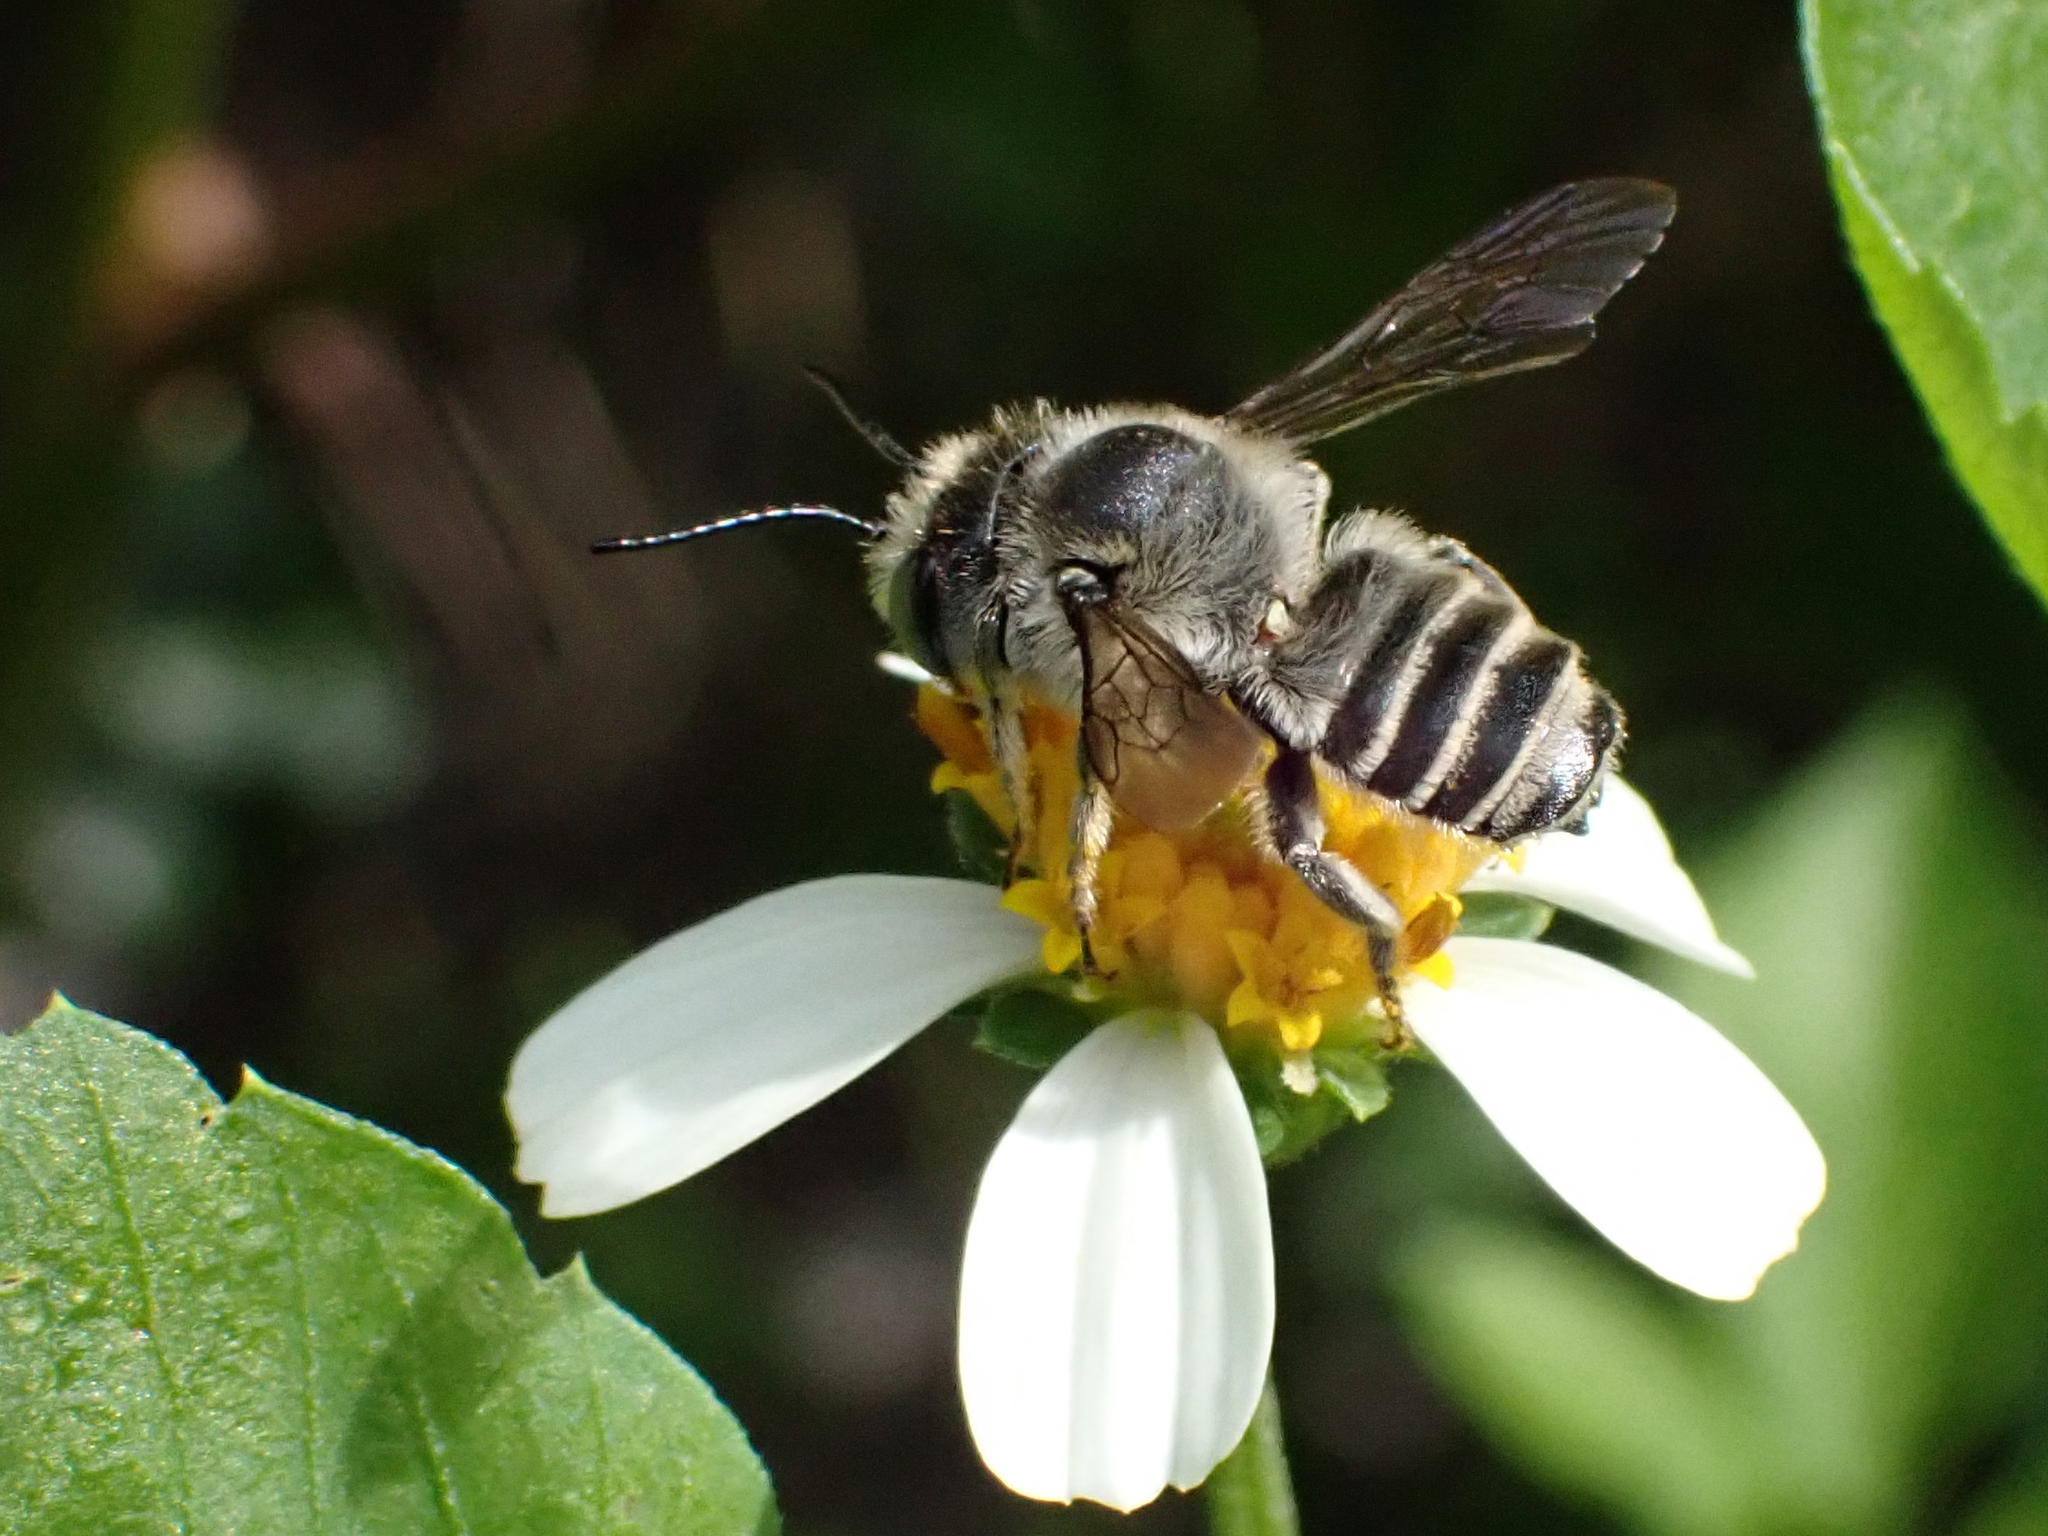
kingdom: Animalia
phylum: Arthropoda
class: Insecta
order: Hymenoptera
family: Megachilidae
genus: Megachile
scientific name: Megachile parallela
